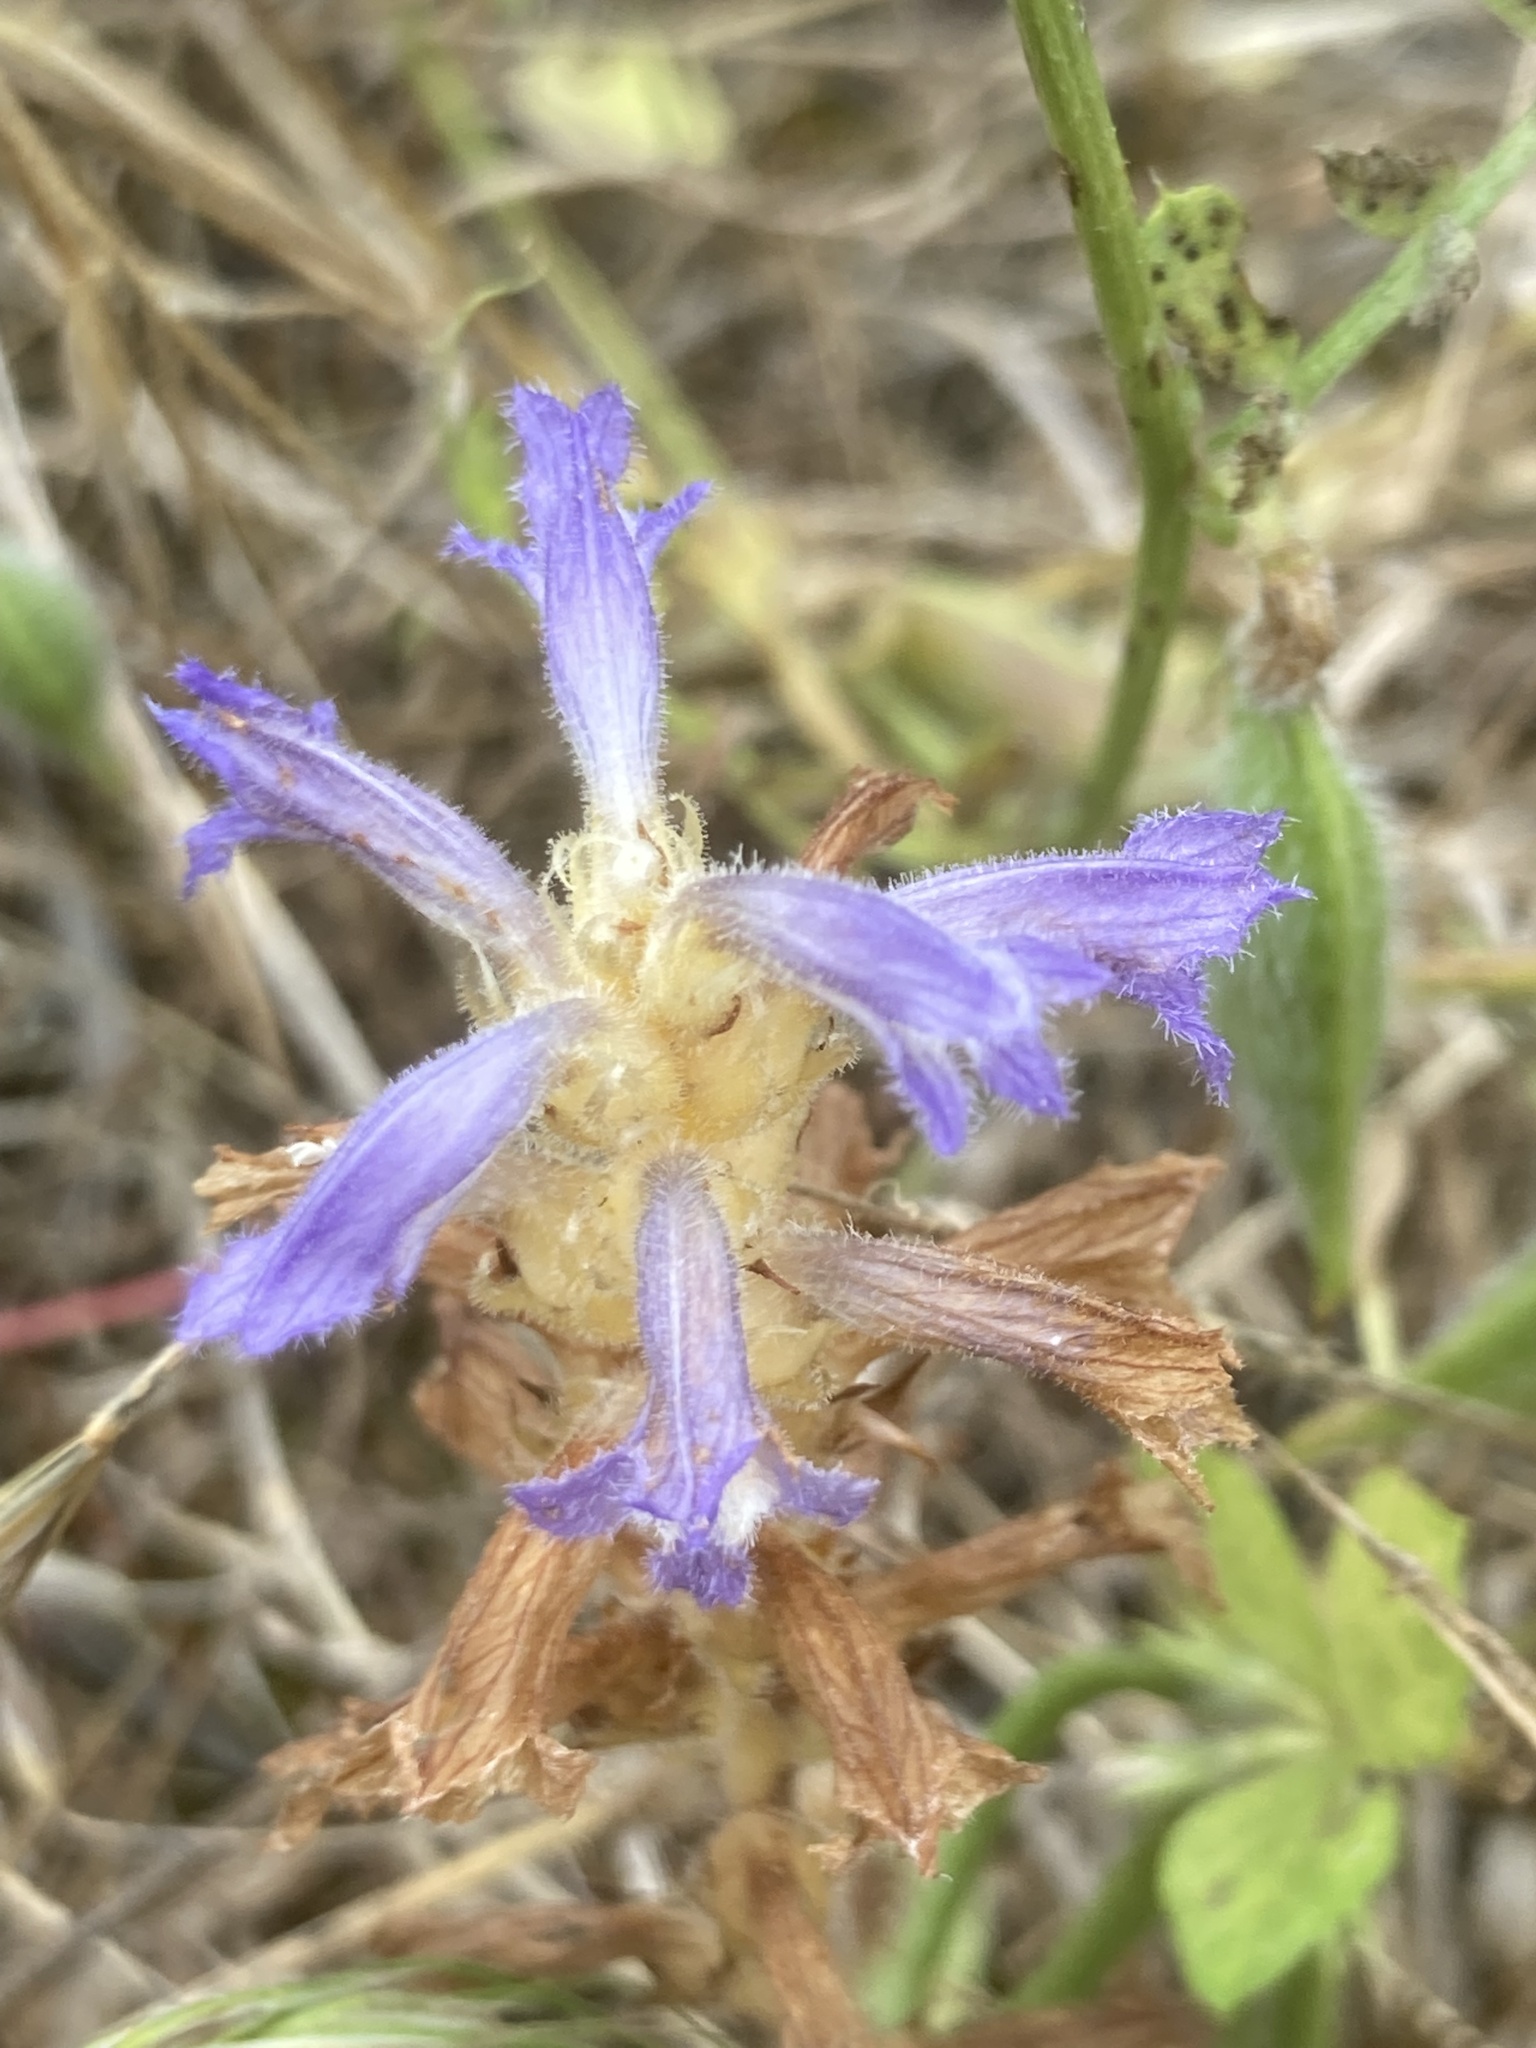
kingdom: Plantae
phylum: Tracheophyta
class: Magnoliopsida
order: Lamiales
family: Orobanchaceae
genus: Phelipanche
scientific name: Phelipanche
